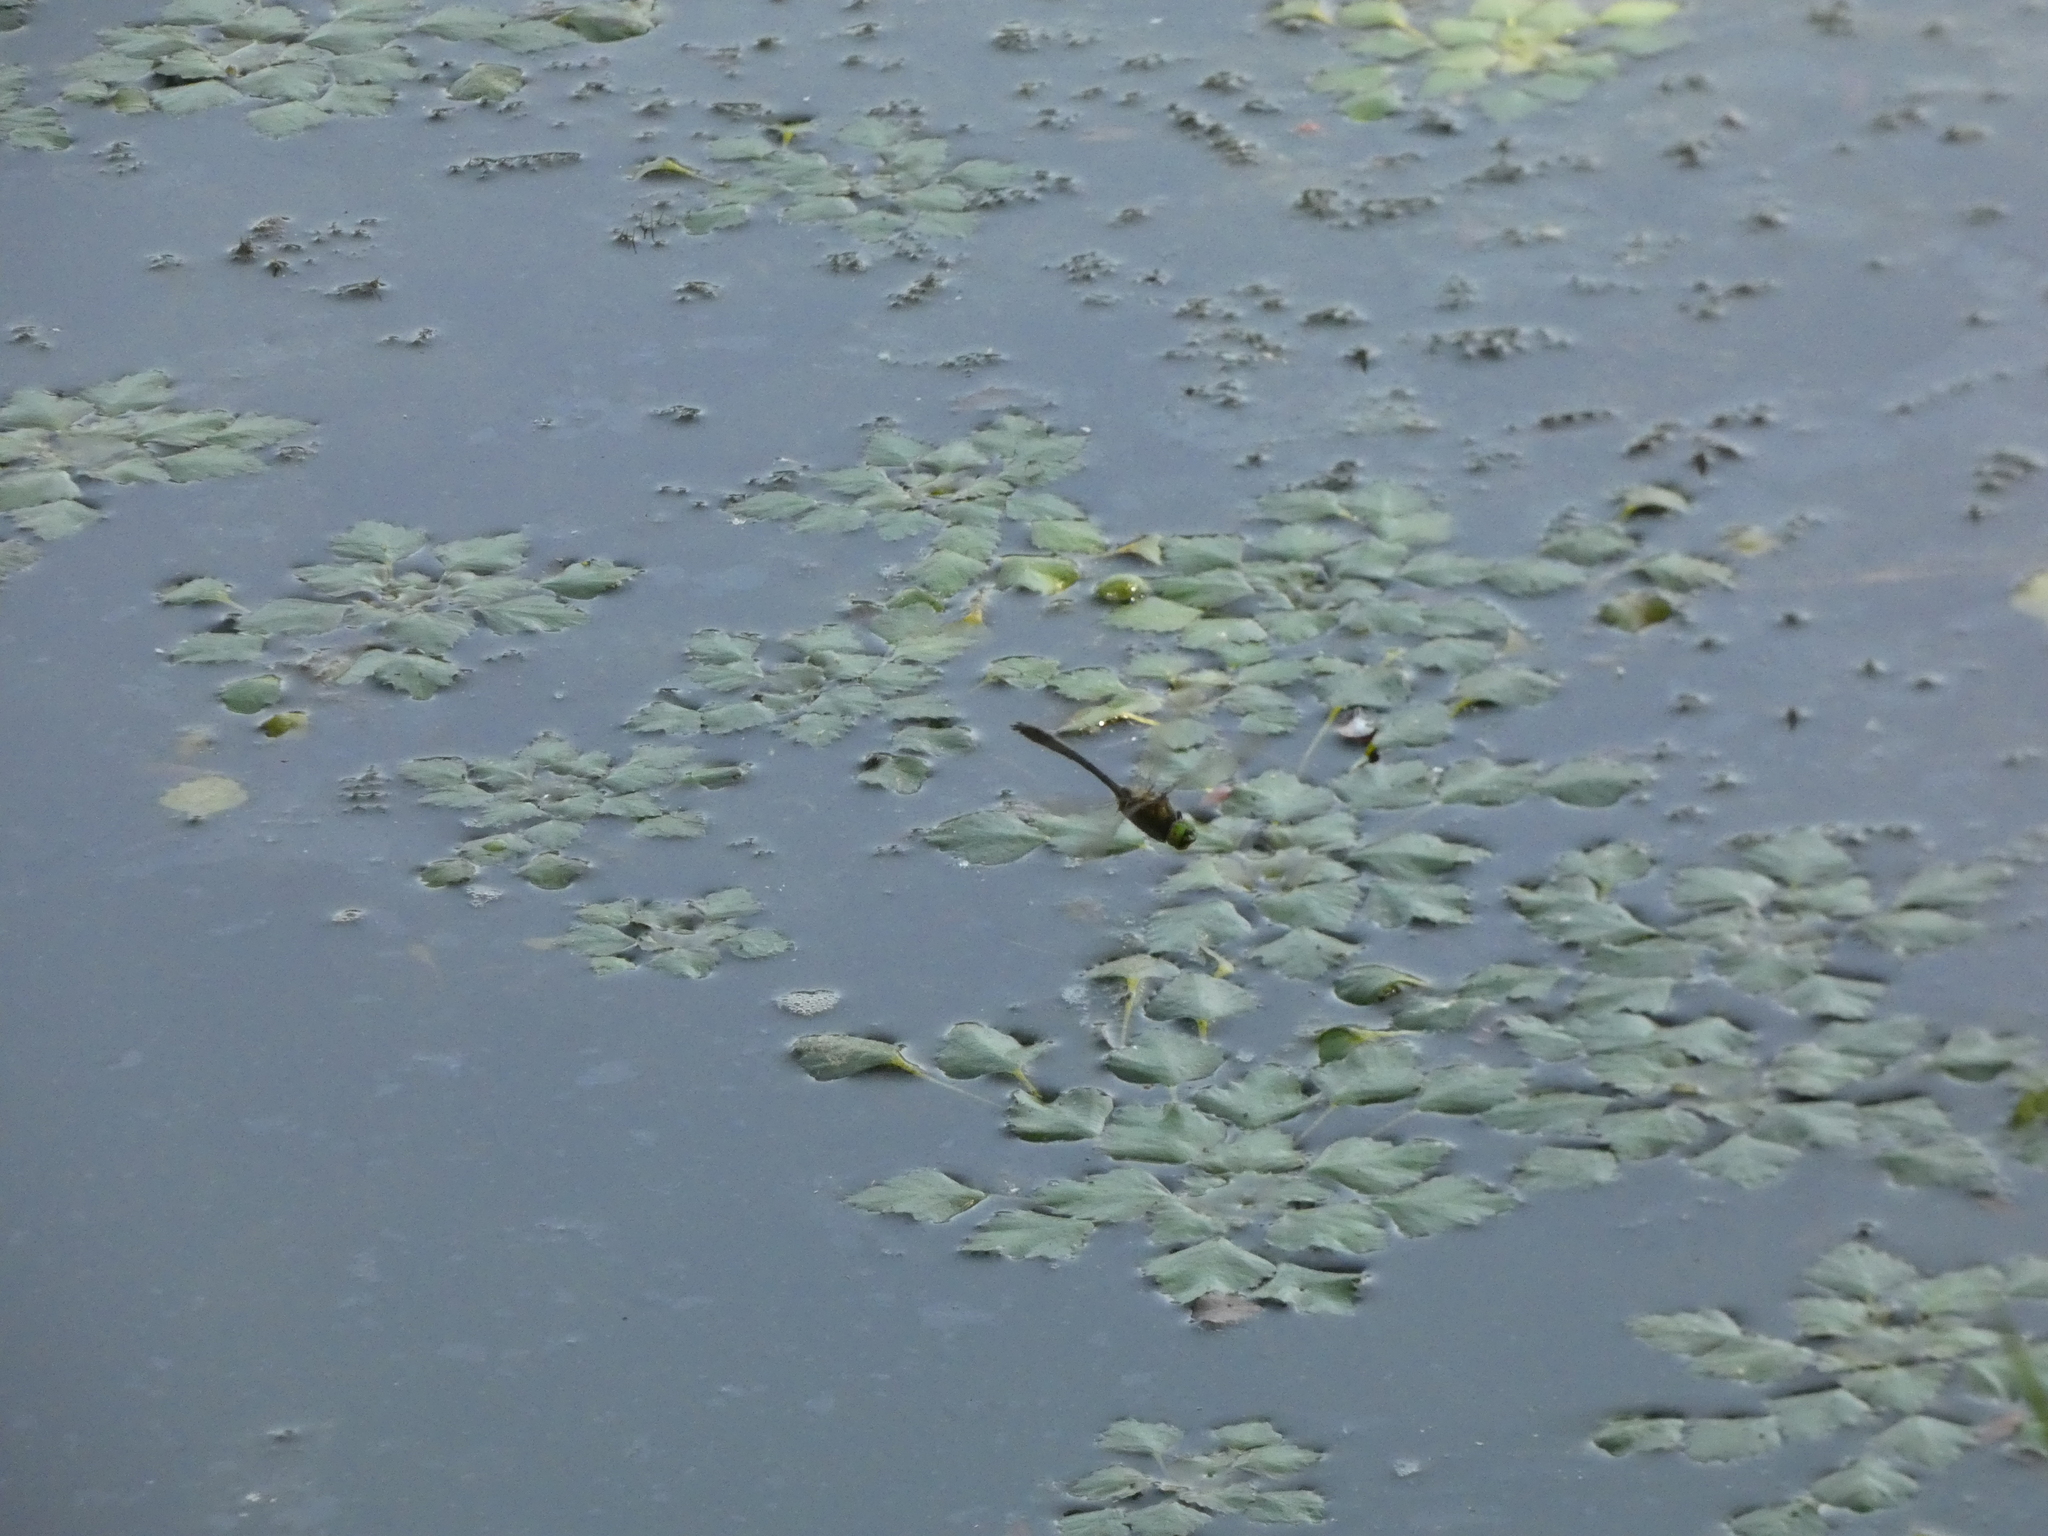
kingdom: Animalia
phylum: Arthropoda
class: Insecta
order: Odonata
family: Corduliidae
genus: Cordulia
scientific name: Cordulia aenea
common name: Downy emerald
